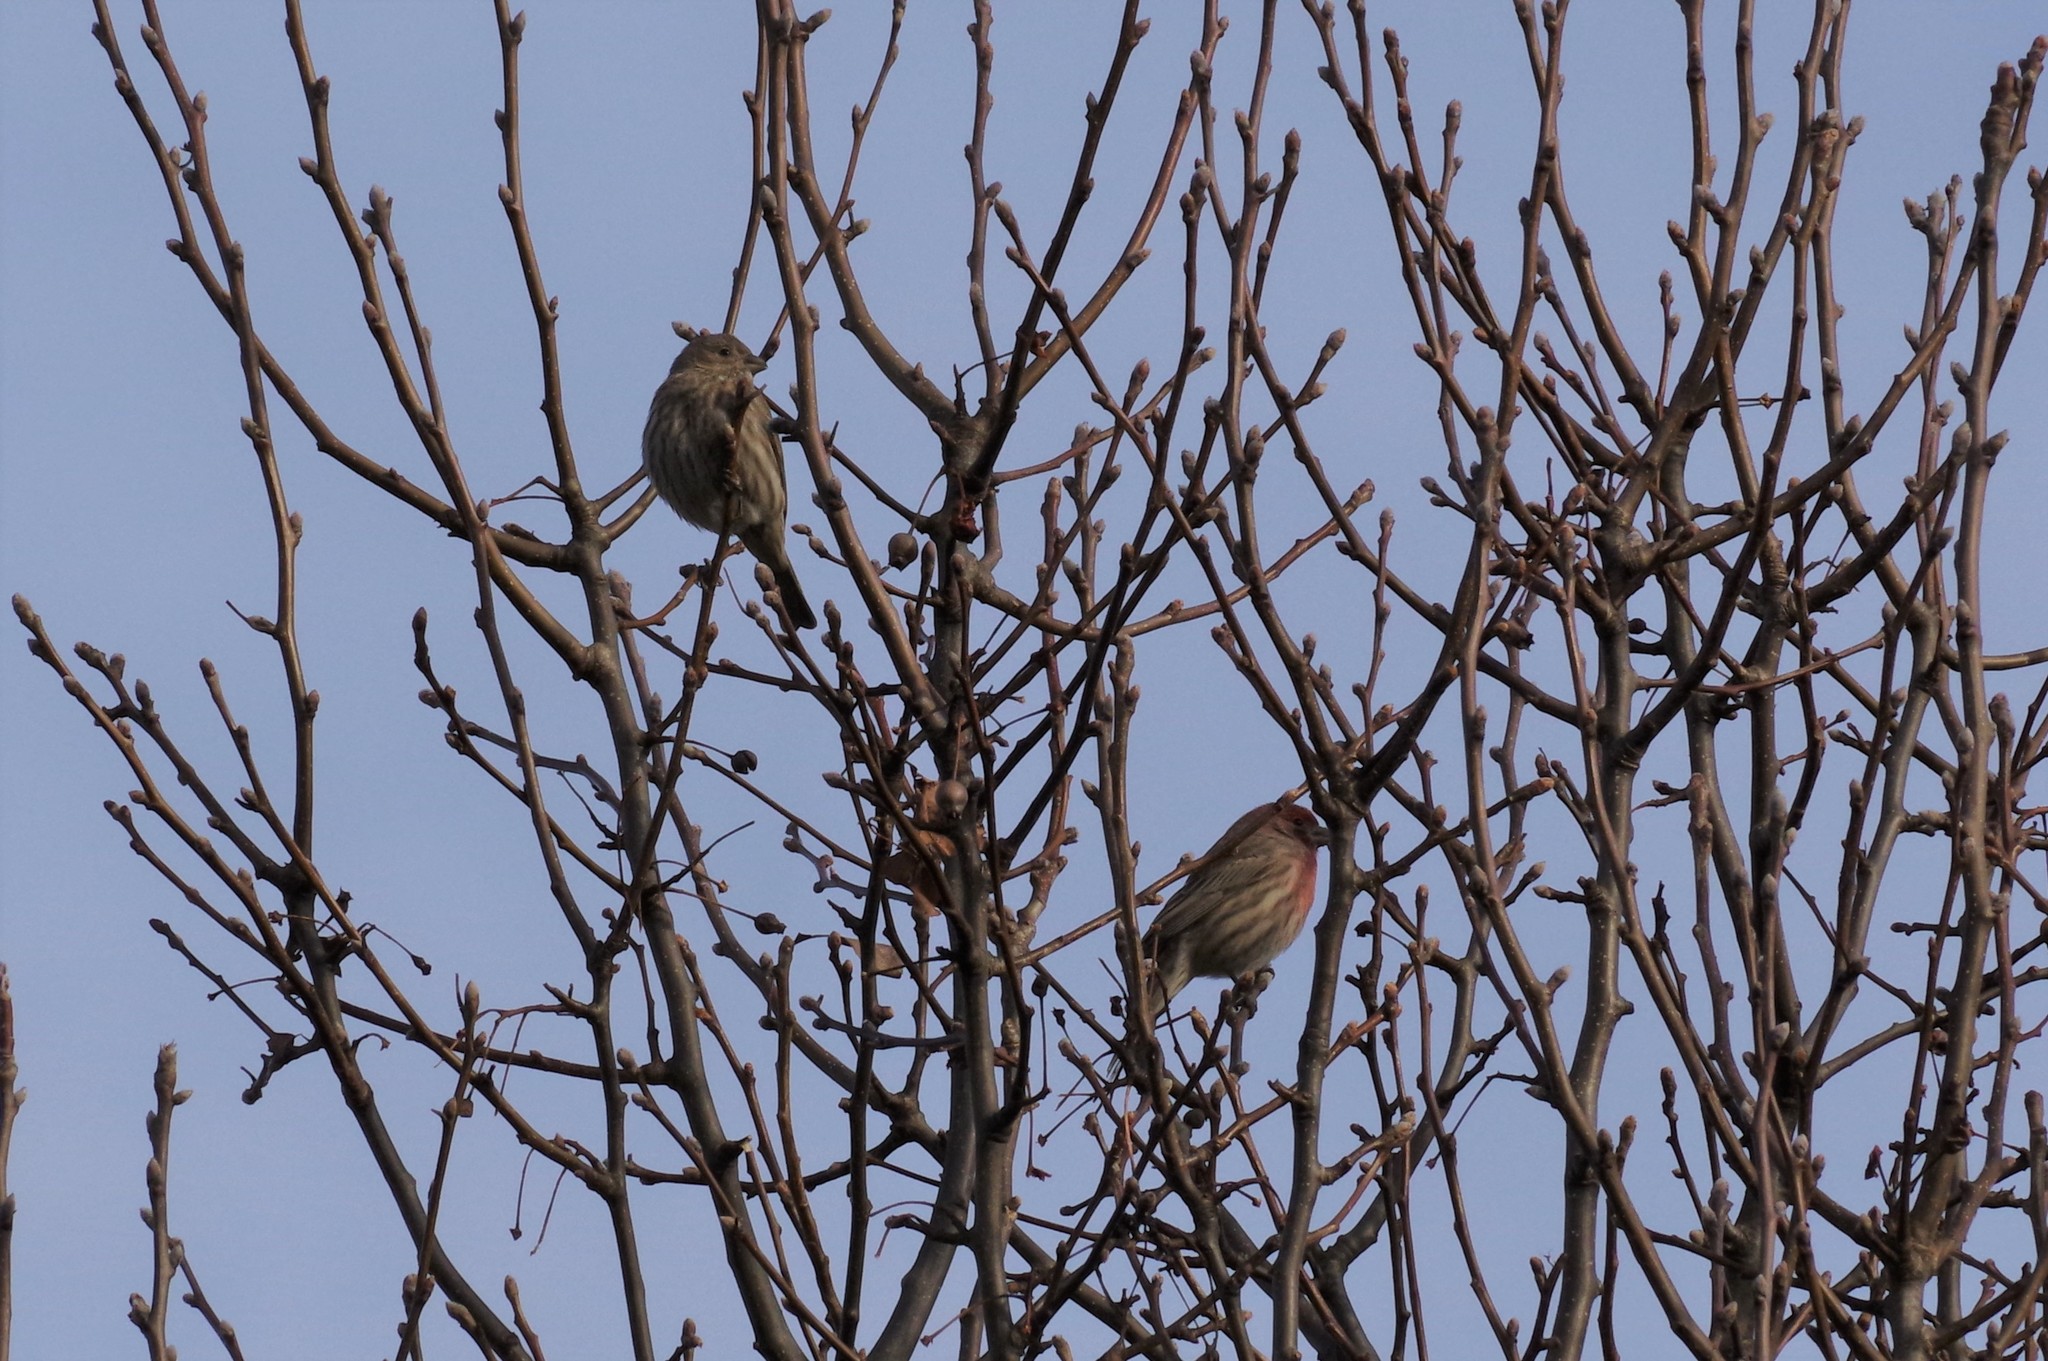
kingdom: Animalia
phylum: Chordata
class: Aves
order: Passeriformes
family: Fringillidae
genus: Haemorhous
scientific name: Haemorhous mexicanus
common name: House finch
